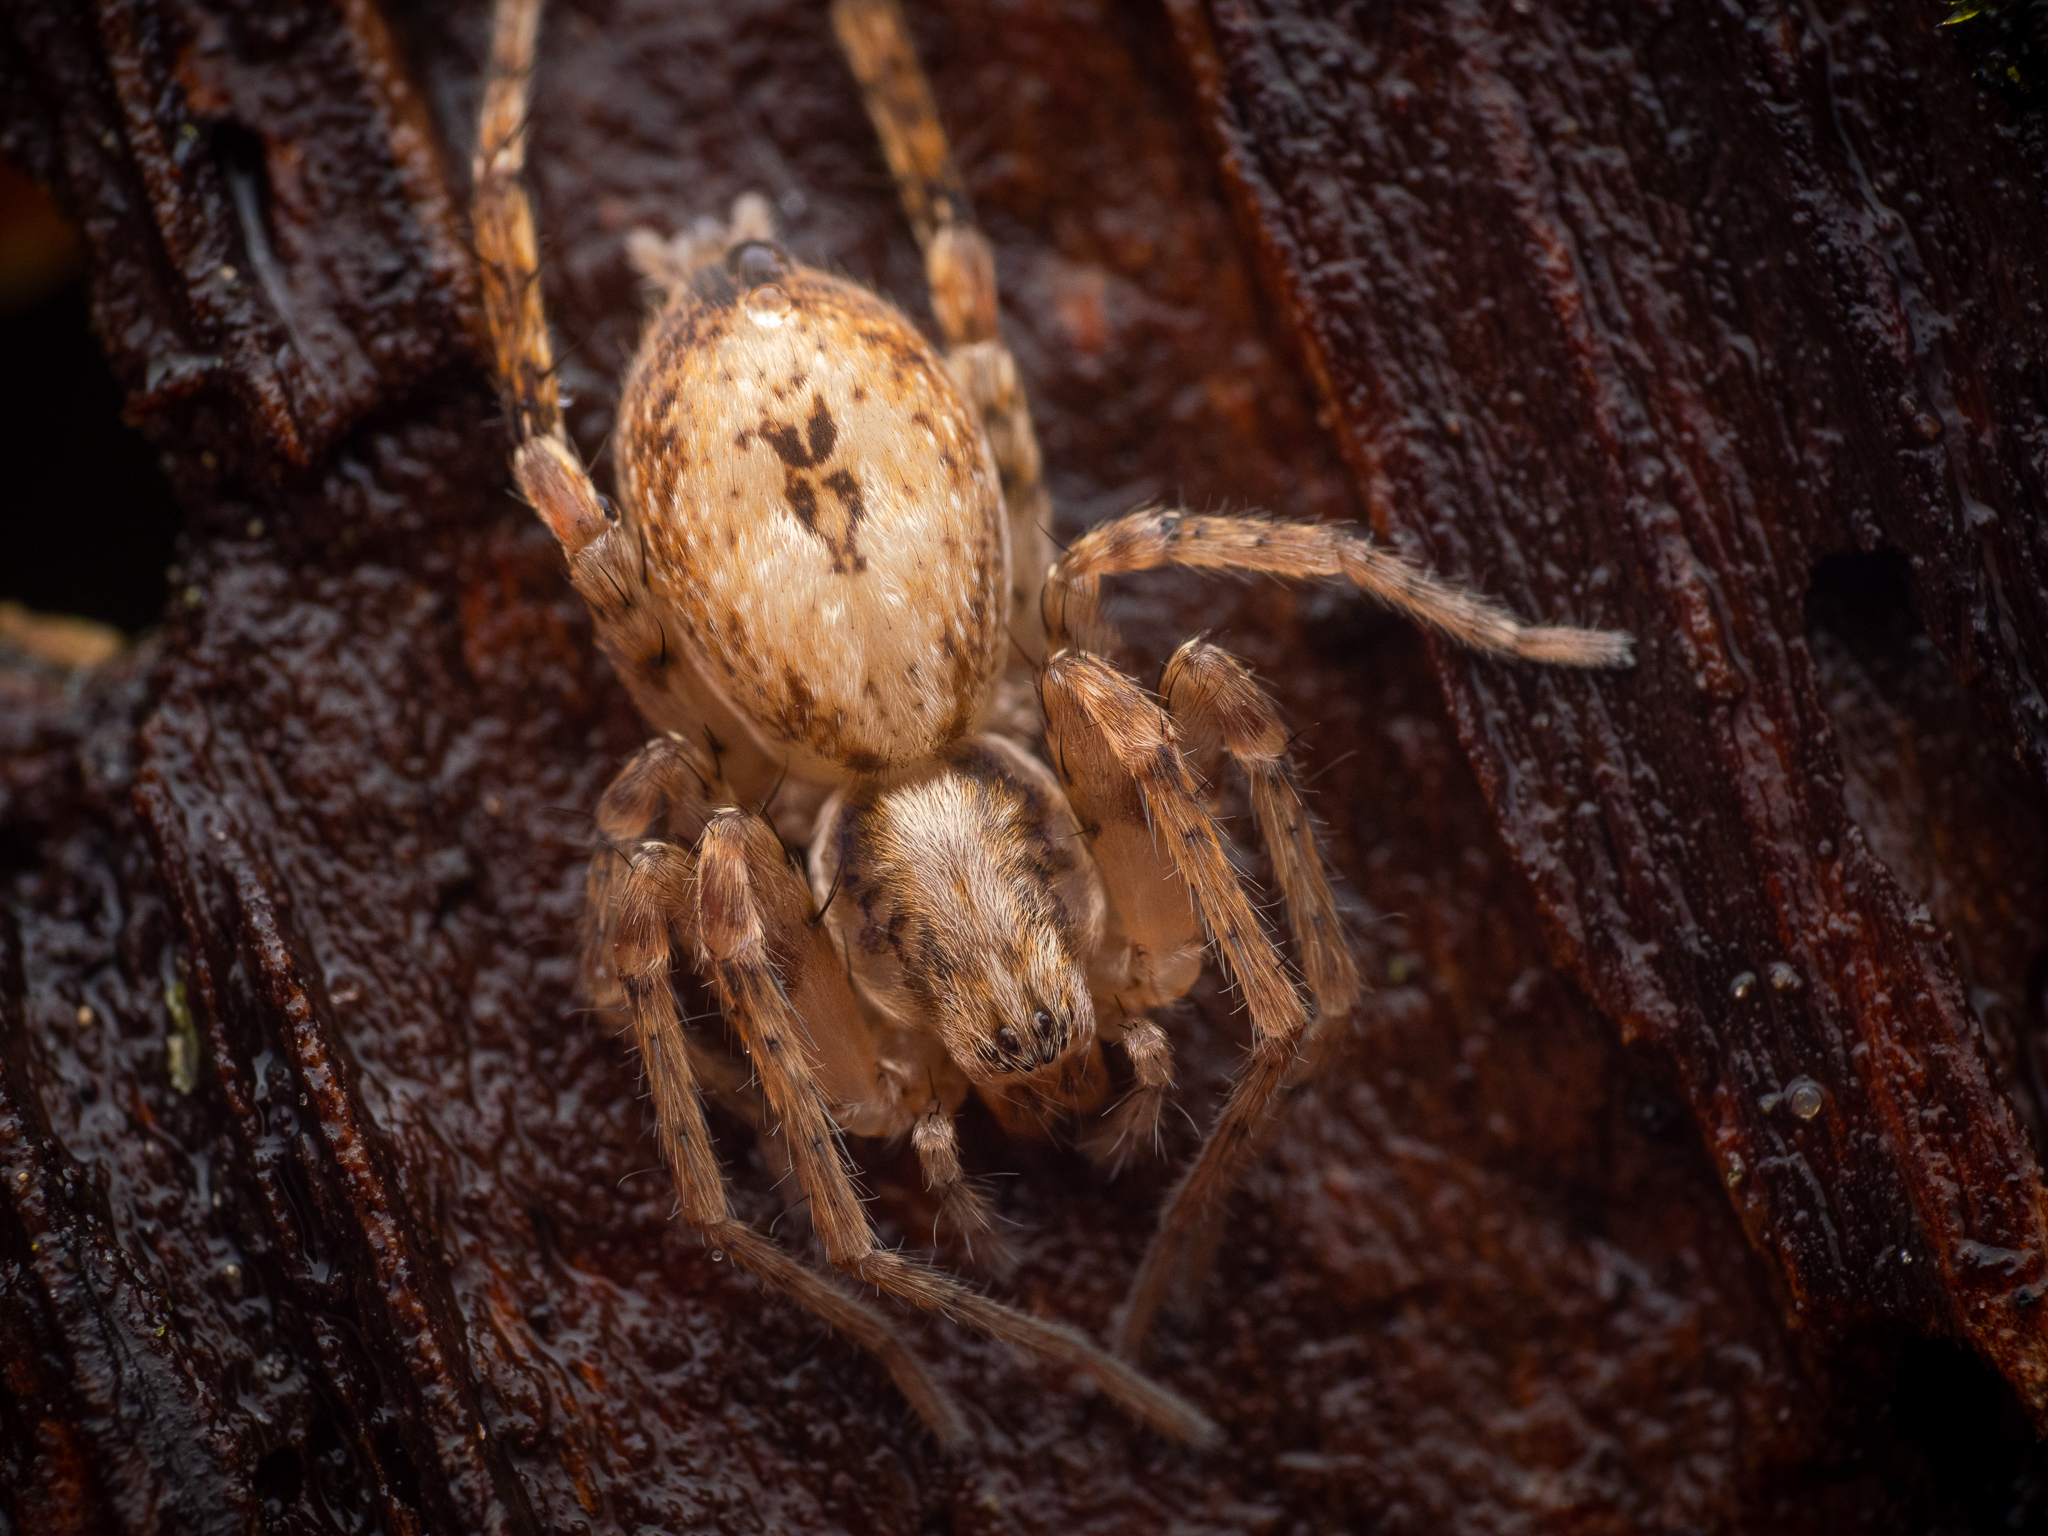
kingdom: Animalia
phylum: Arthropoda
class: Arachnida
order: Araneae
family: Anyphaenidae
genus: Anyphaena
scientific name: Anyphaena accentuata
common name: Buzzing spider
